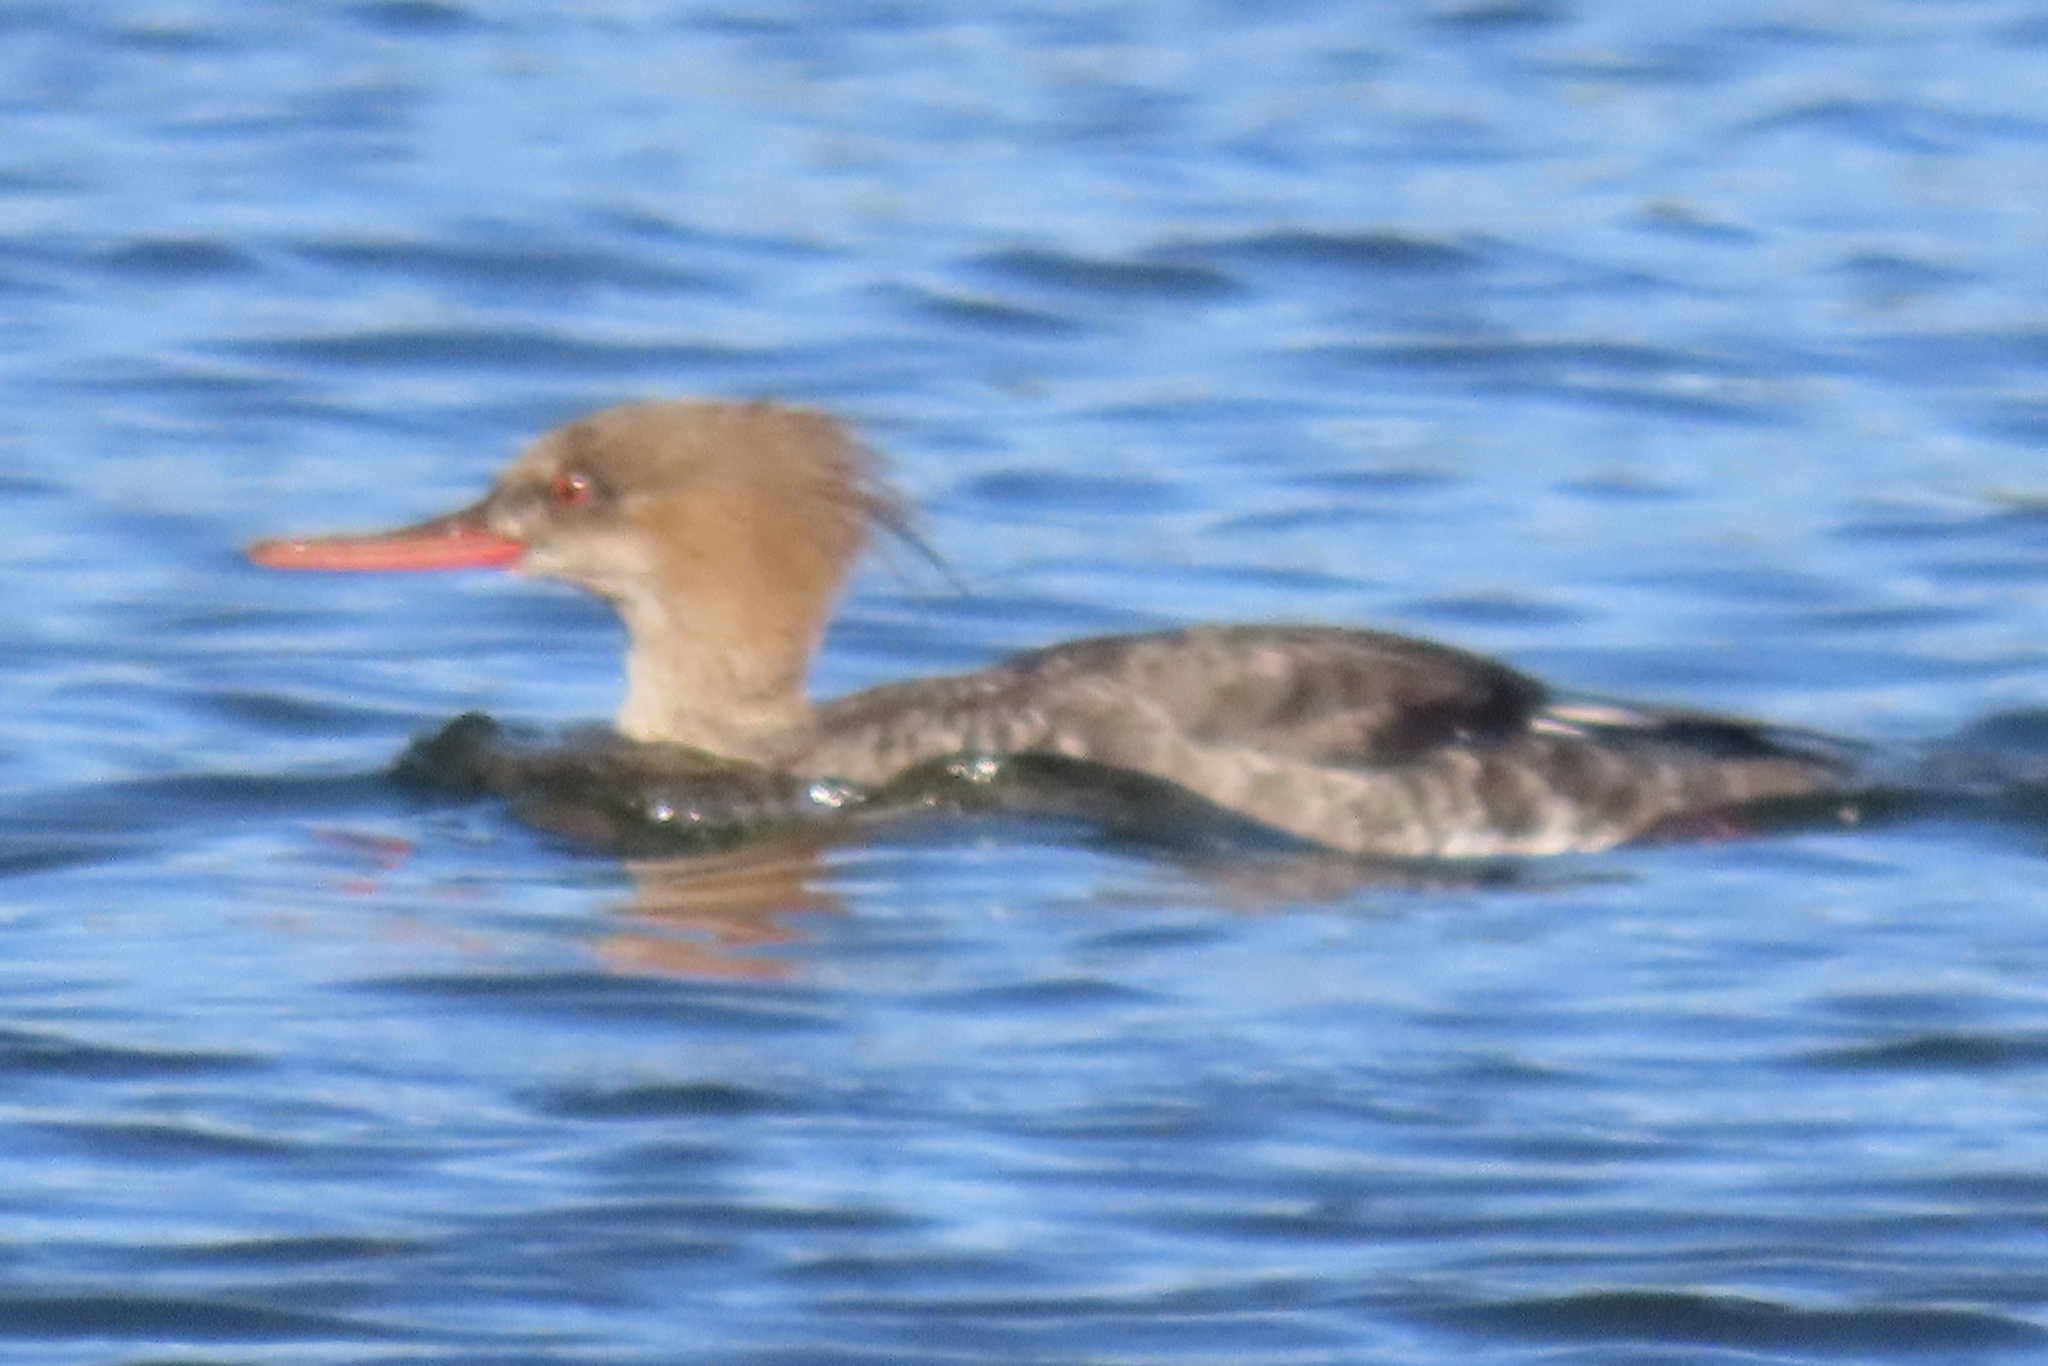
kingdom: Animalia
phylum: Chordata
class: Aves
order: Anseriformes
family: Anatidae
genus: Mergus
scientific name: Mergus serrator
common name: Red-breasted merganser
